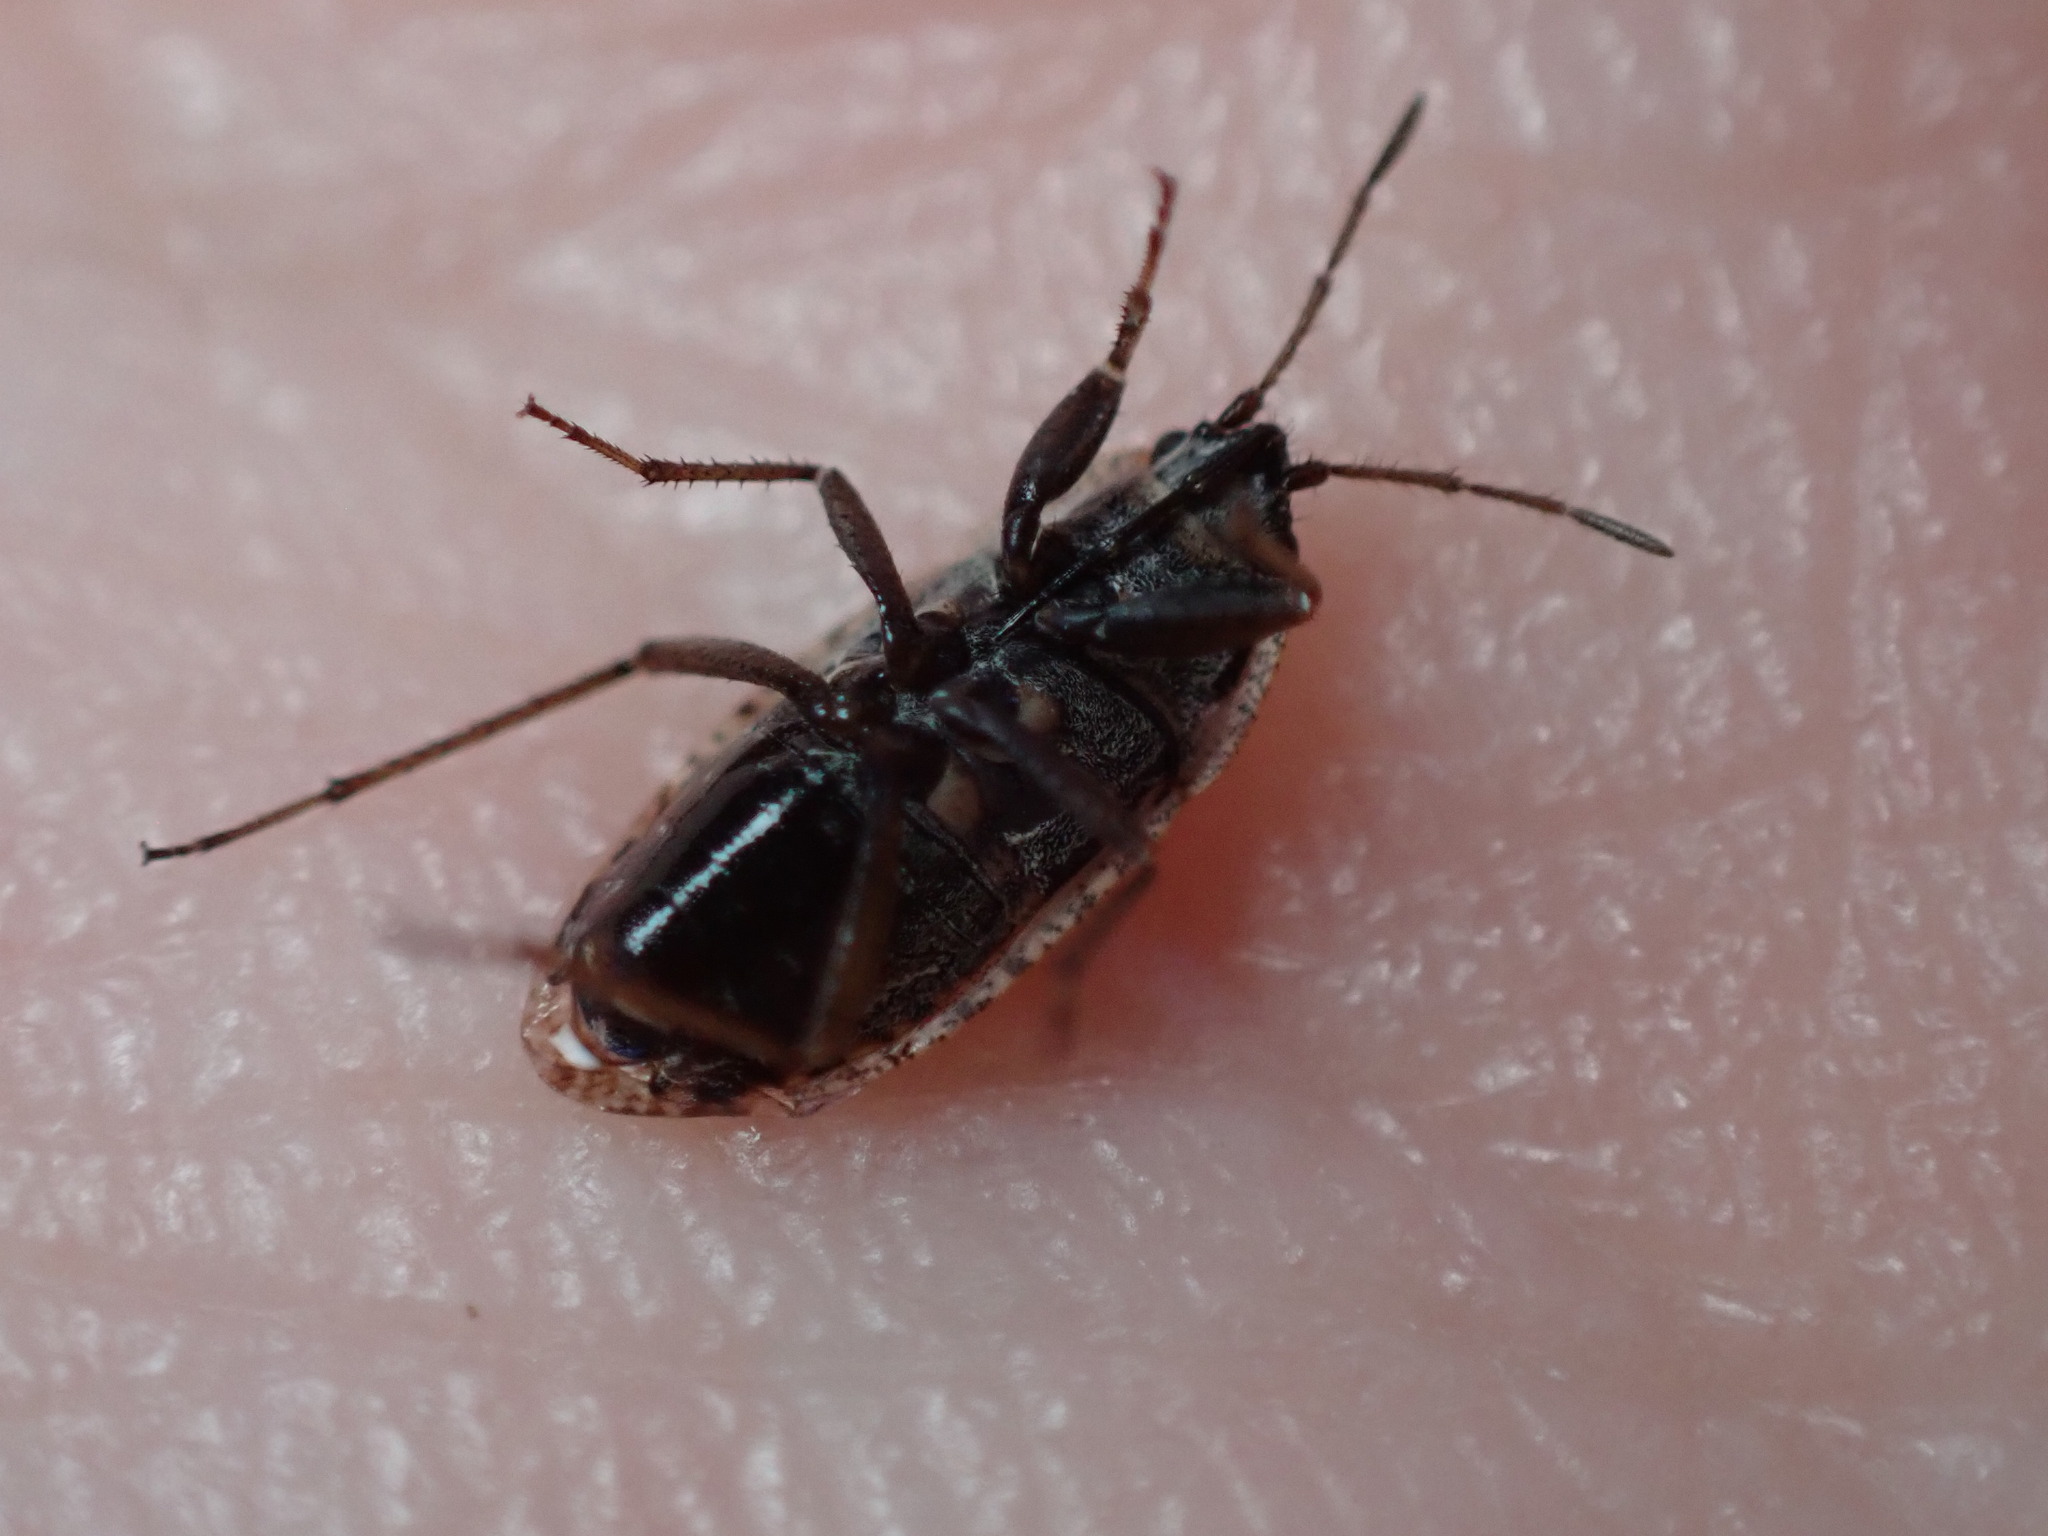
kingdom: Animalia
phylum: Arthropoda
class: Insecta
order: Hemiptera
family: Rhyparochromidae
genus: Emblethis
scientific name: Emblethis vicarius
